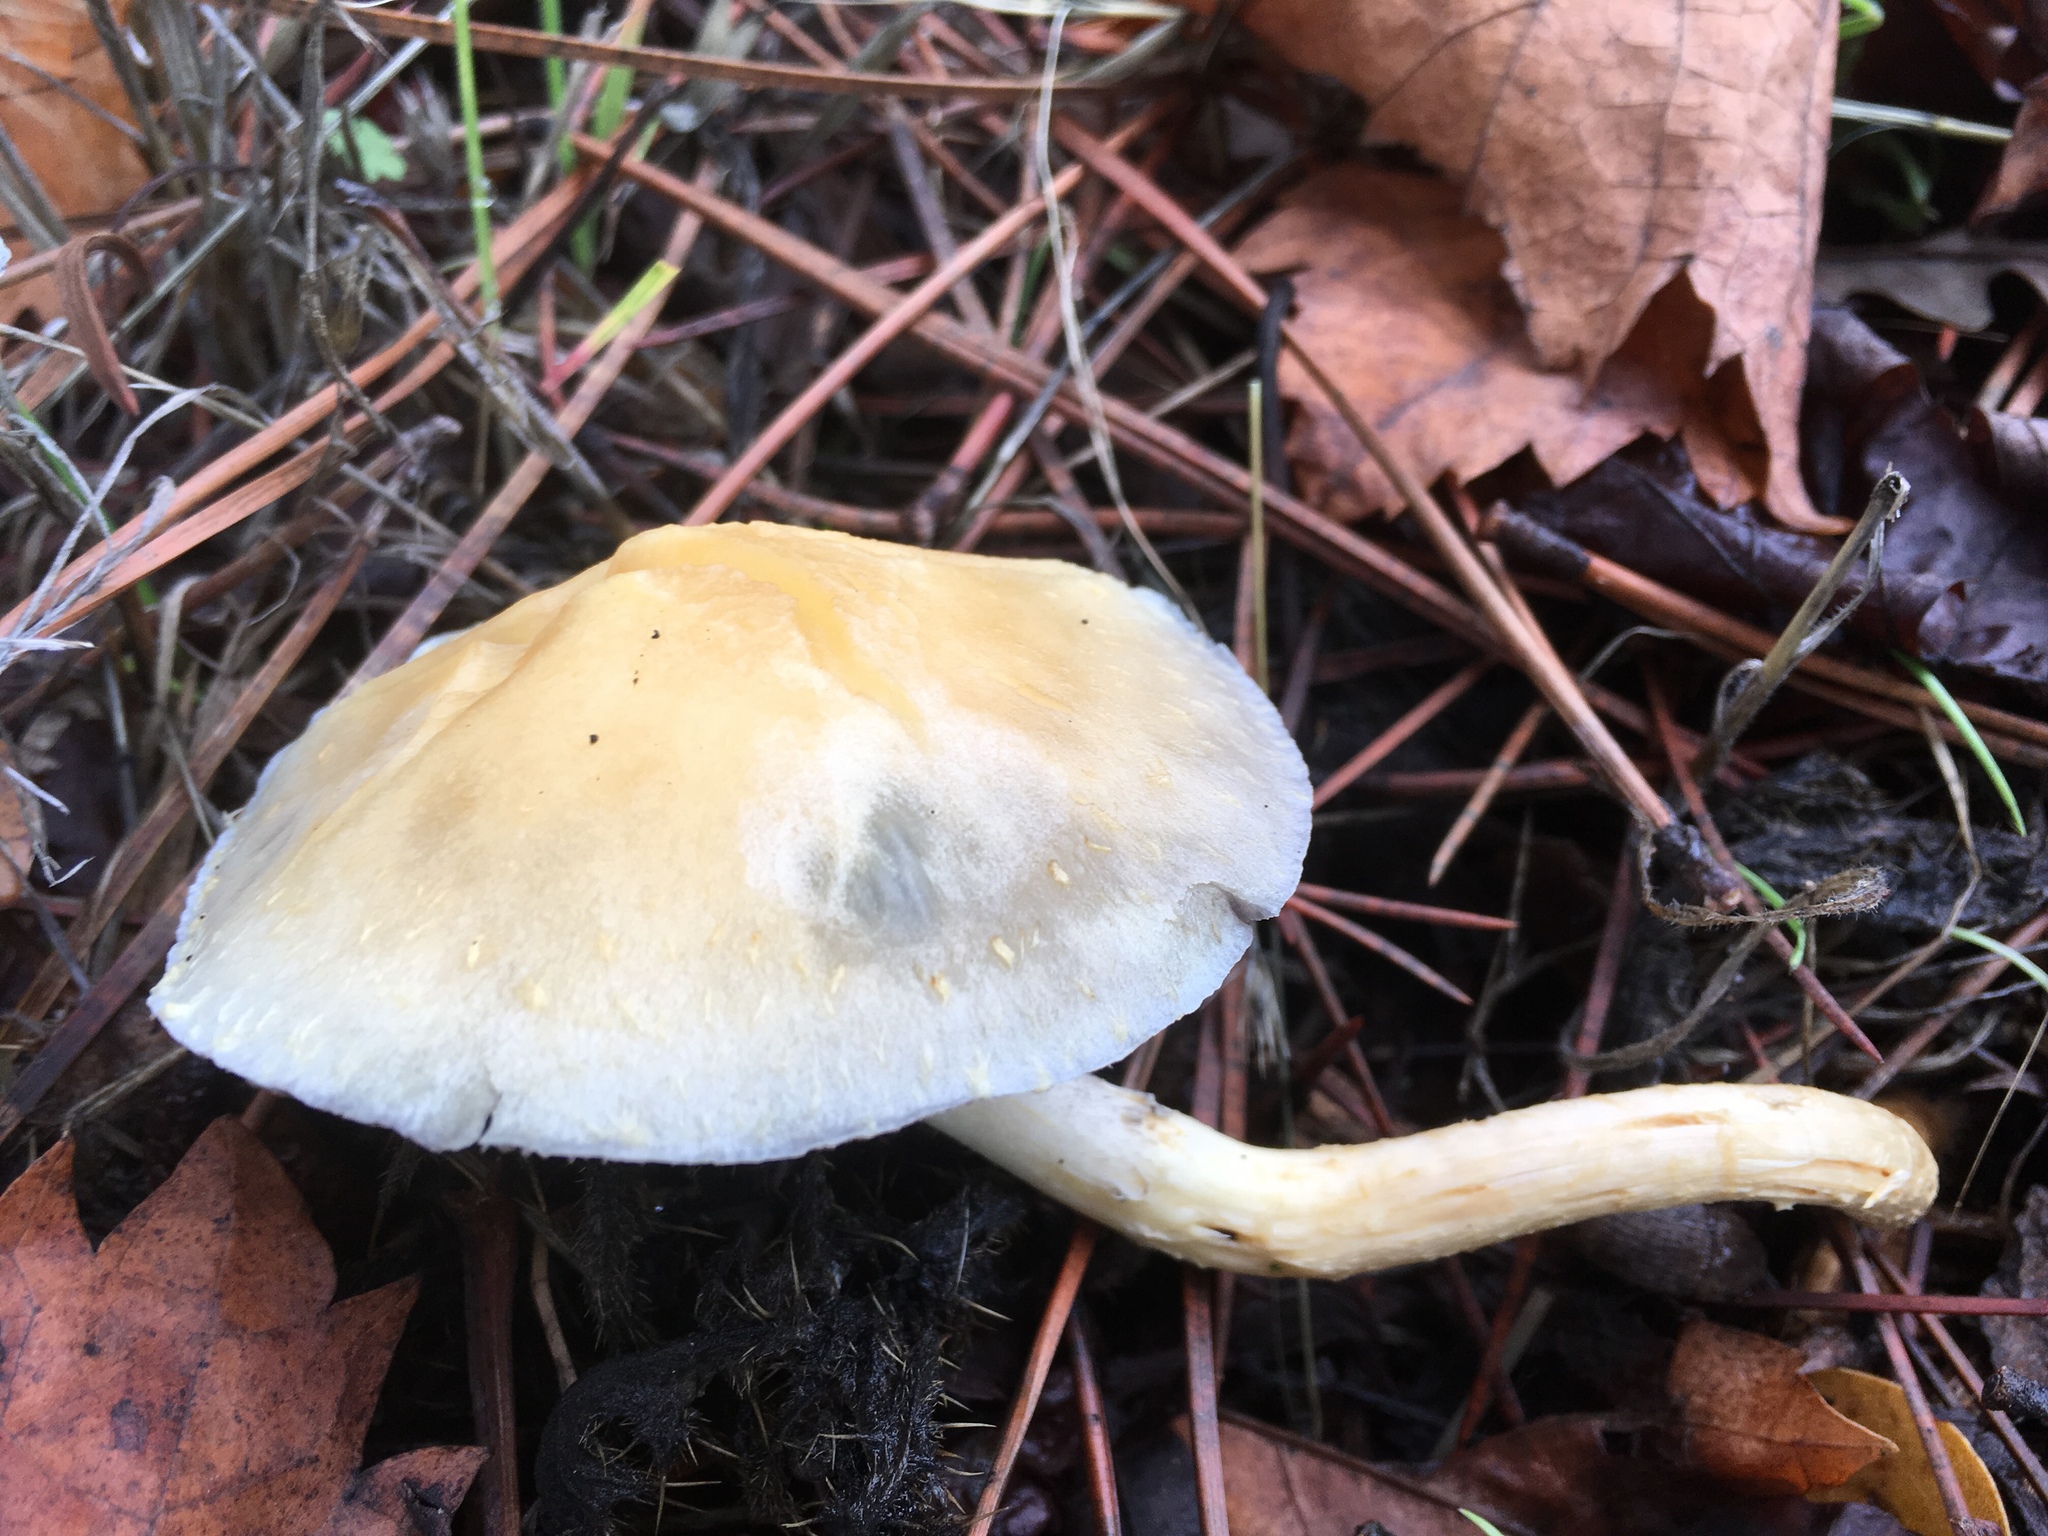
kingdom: Fungi
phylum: Basidiomycota
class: Agaricomycetes
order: Agaricales
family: Strophariaceae
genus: Leratiomyces
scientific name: Leratiomyces percevalii
